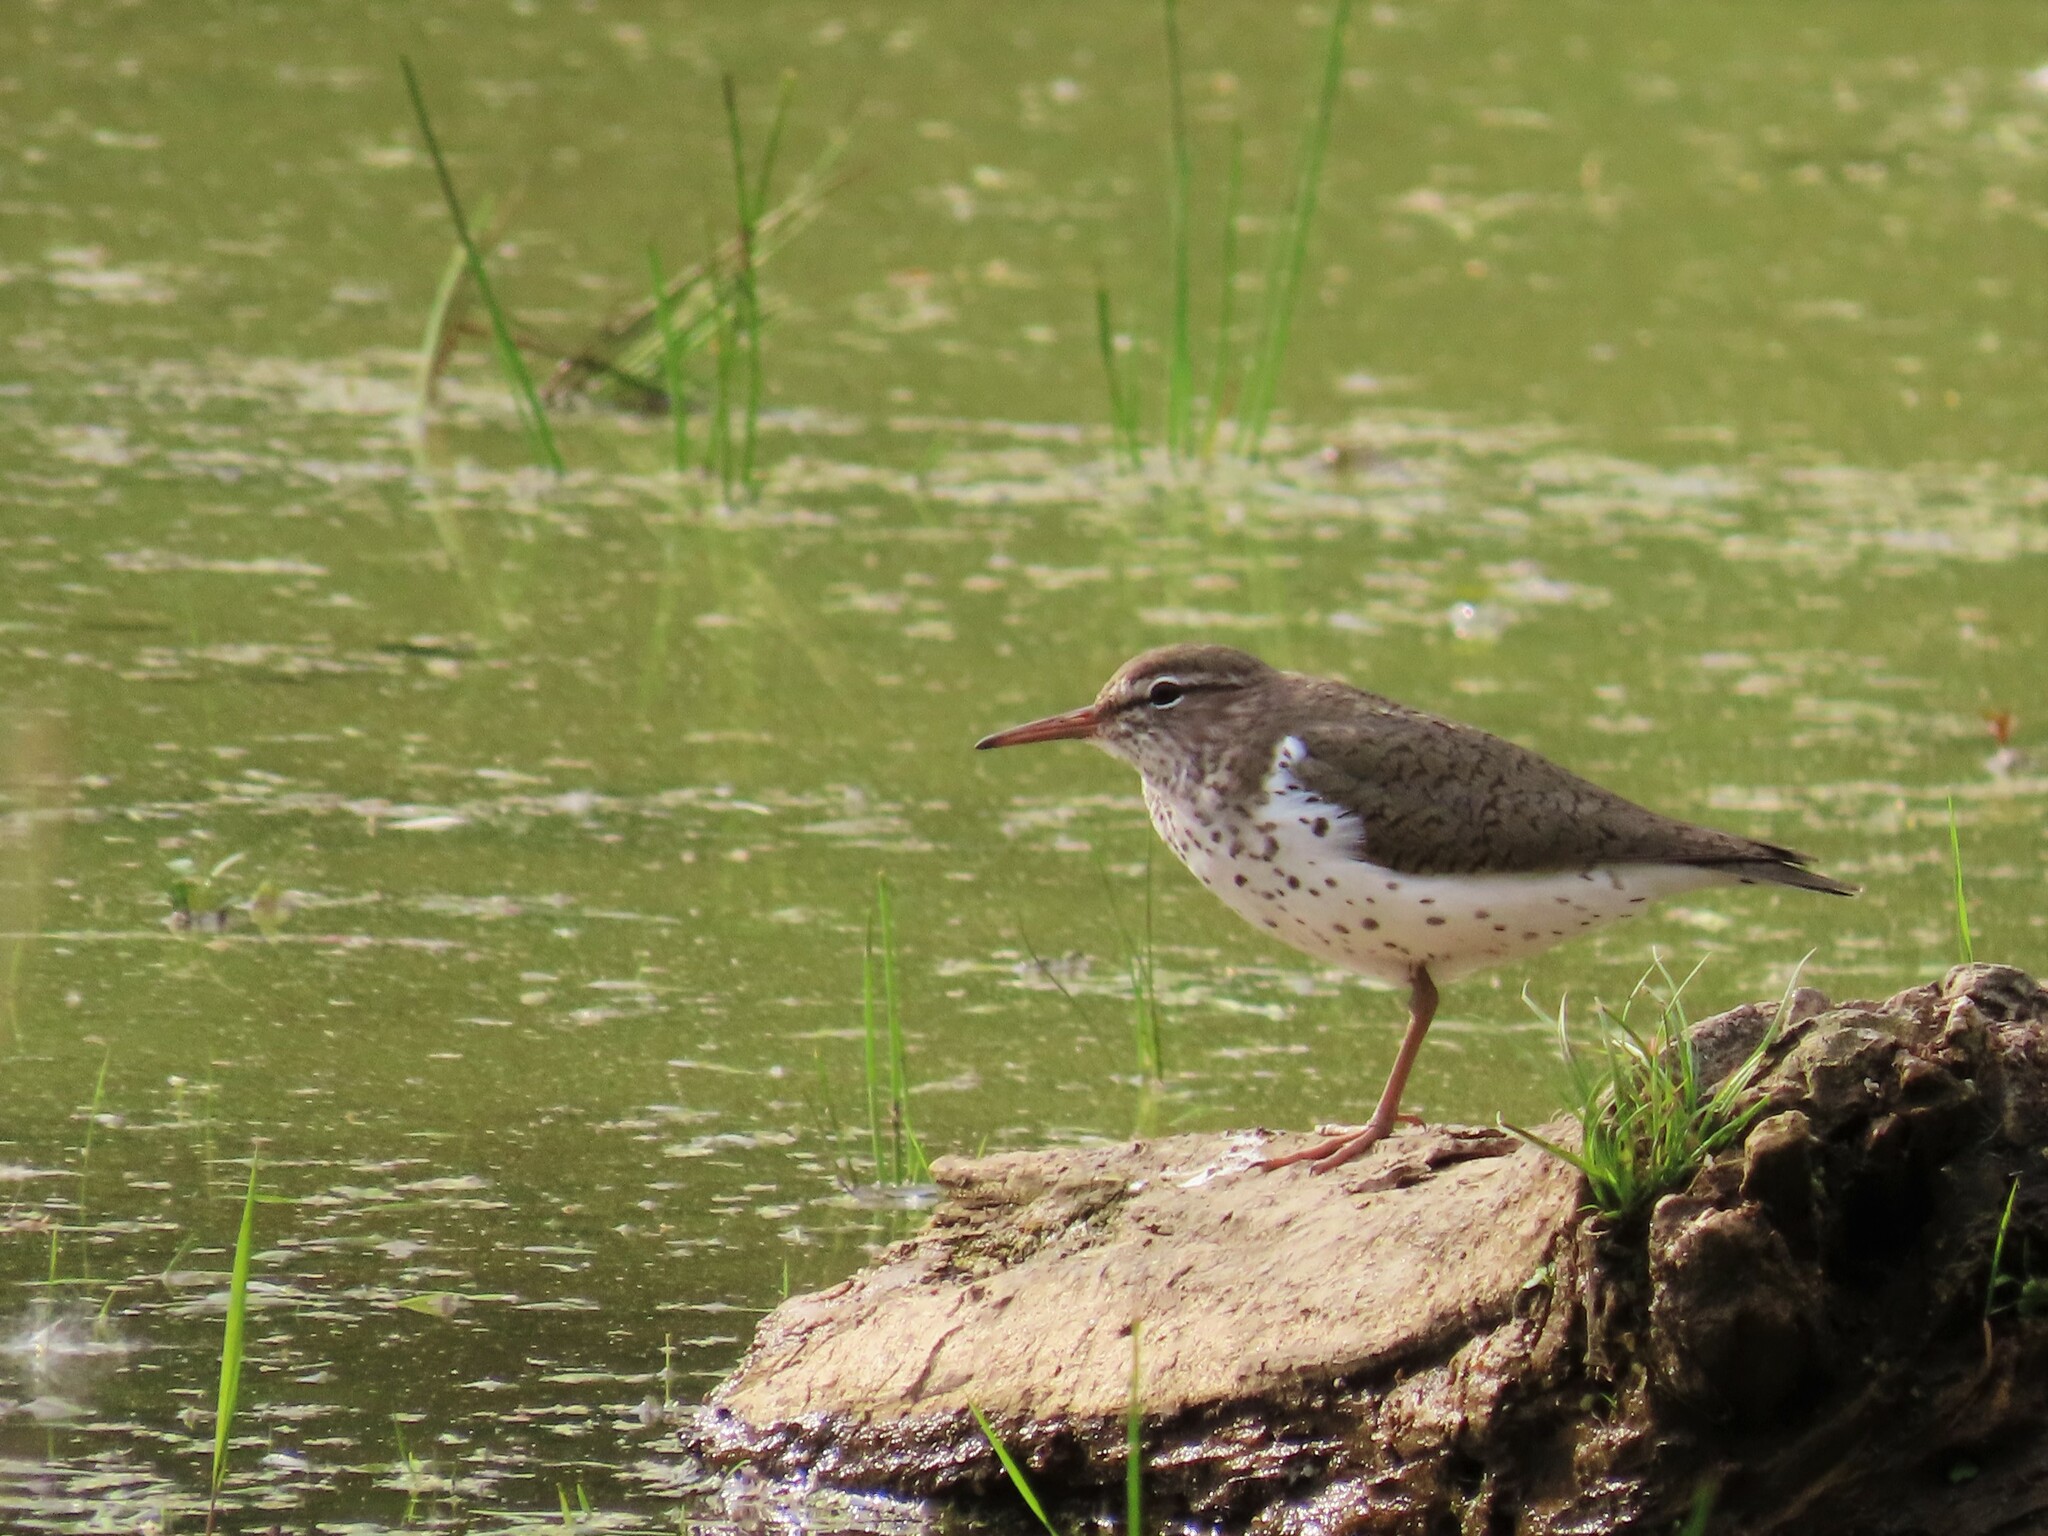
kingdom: Animalia
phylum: Chordata
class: Aves
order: Charadriiformes
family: Scolopacidae
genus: Actitis
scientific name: Actitis macularius
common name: Spotted sandpiper
